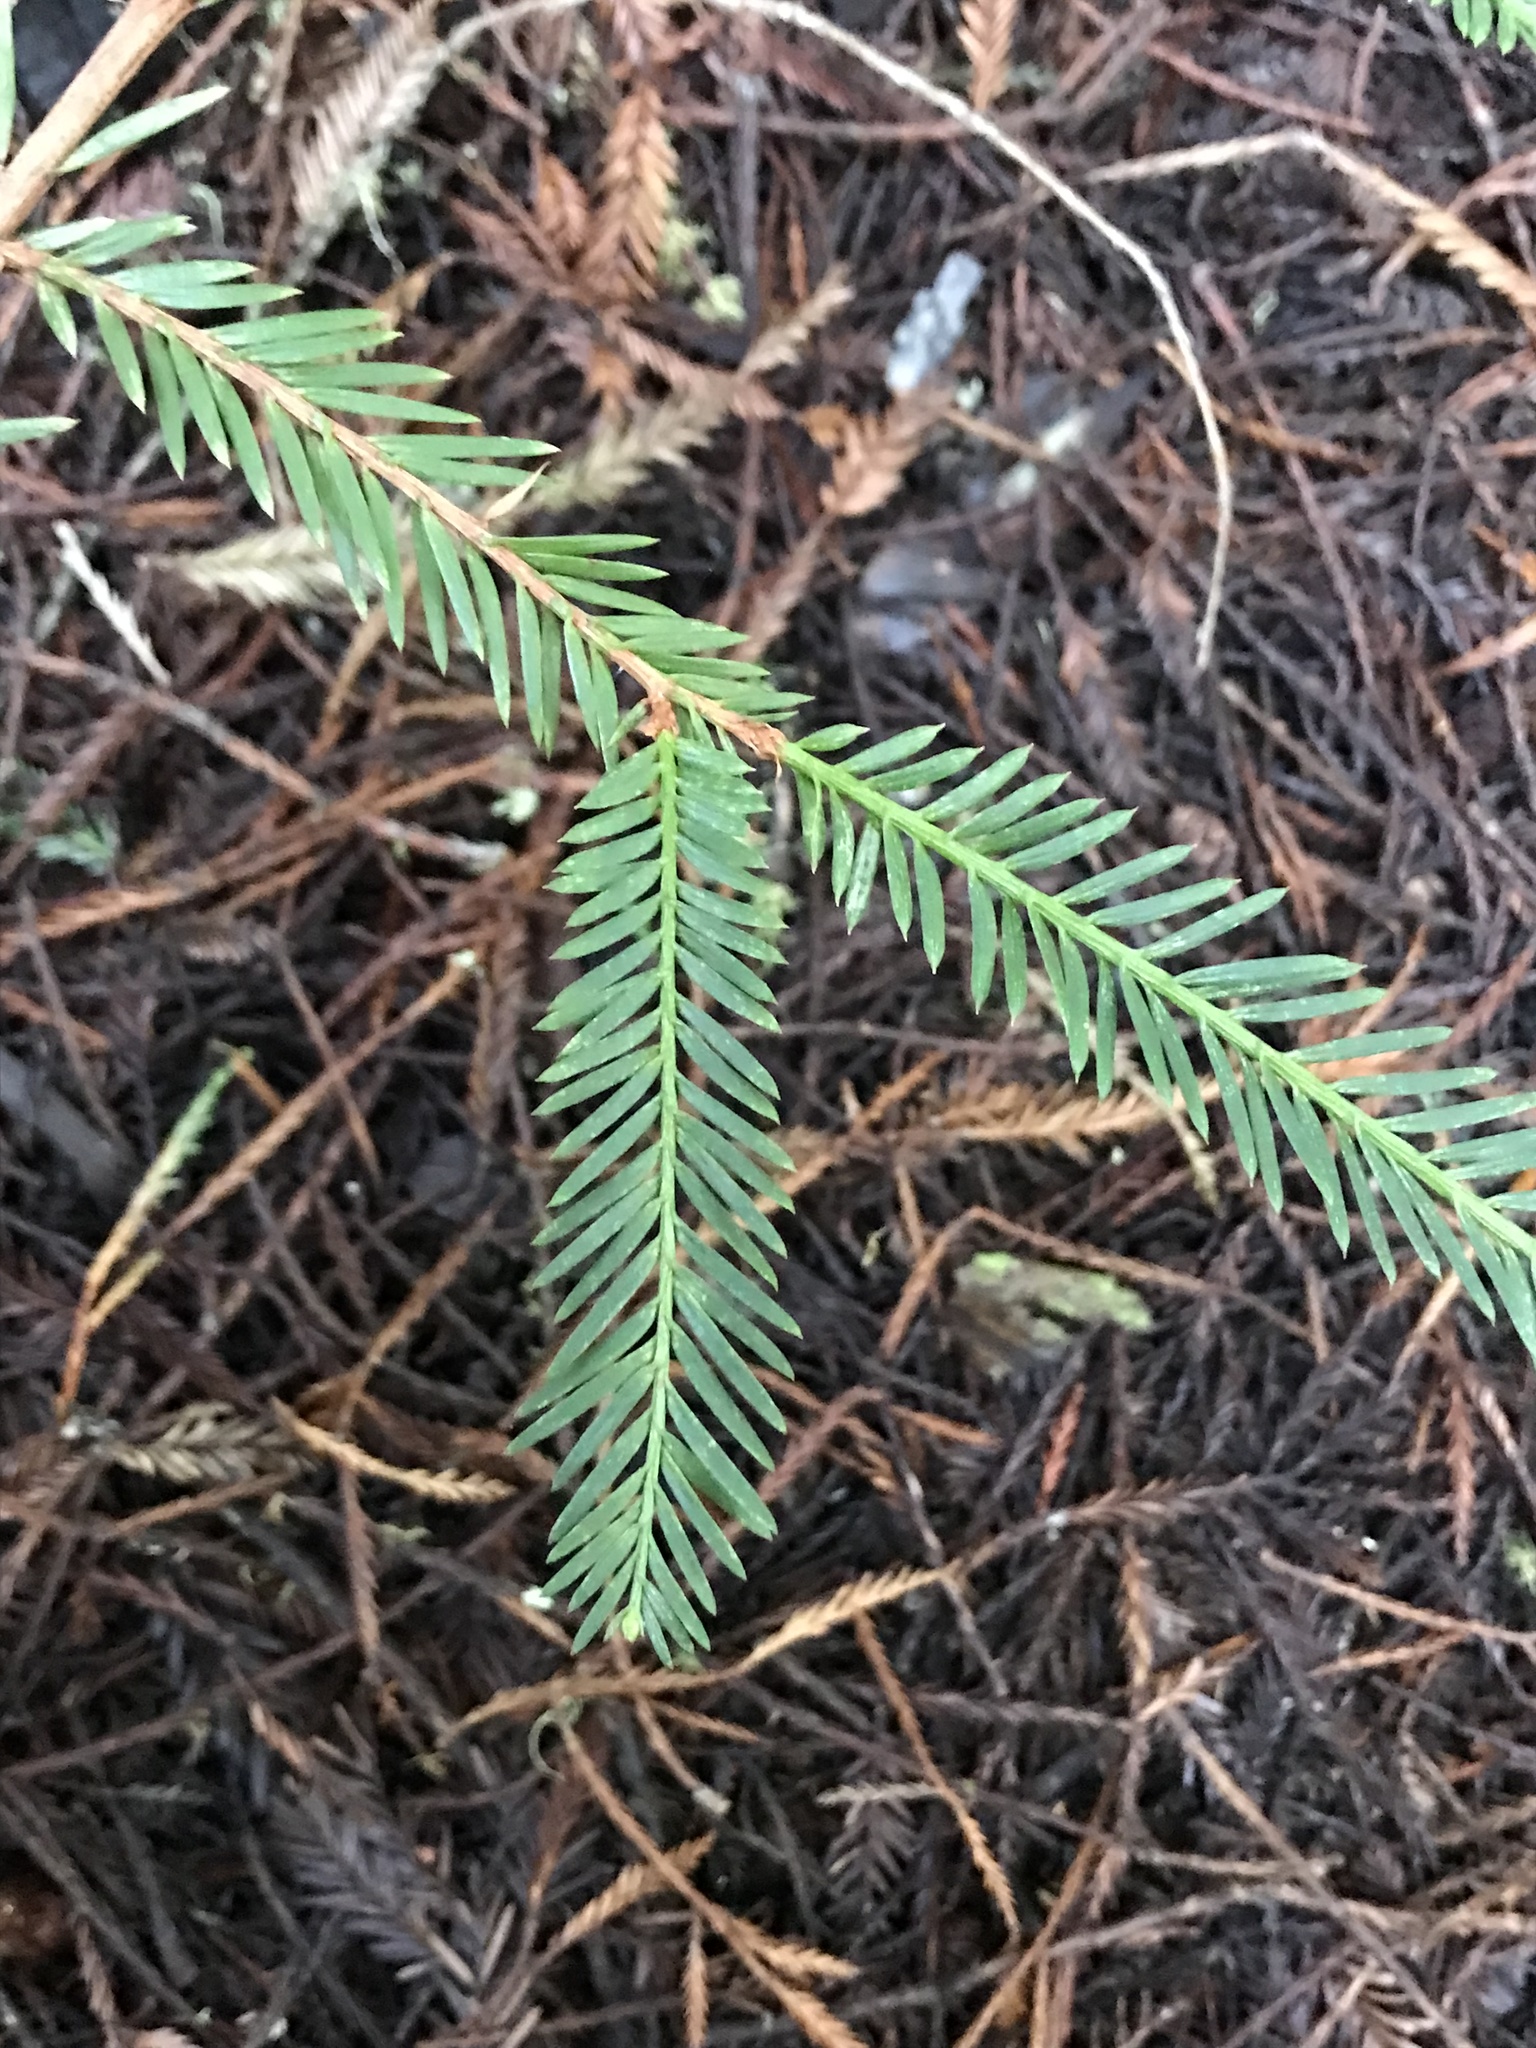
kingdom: Plantae
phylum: Tracheophyta
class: Pinopsida
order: Pinales
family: Cupressaceae
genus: Sequoia
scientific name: Sequoia sempervirens
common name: Coast redwood
